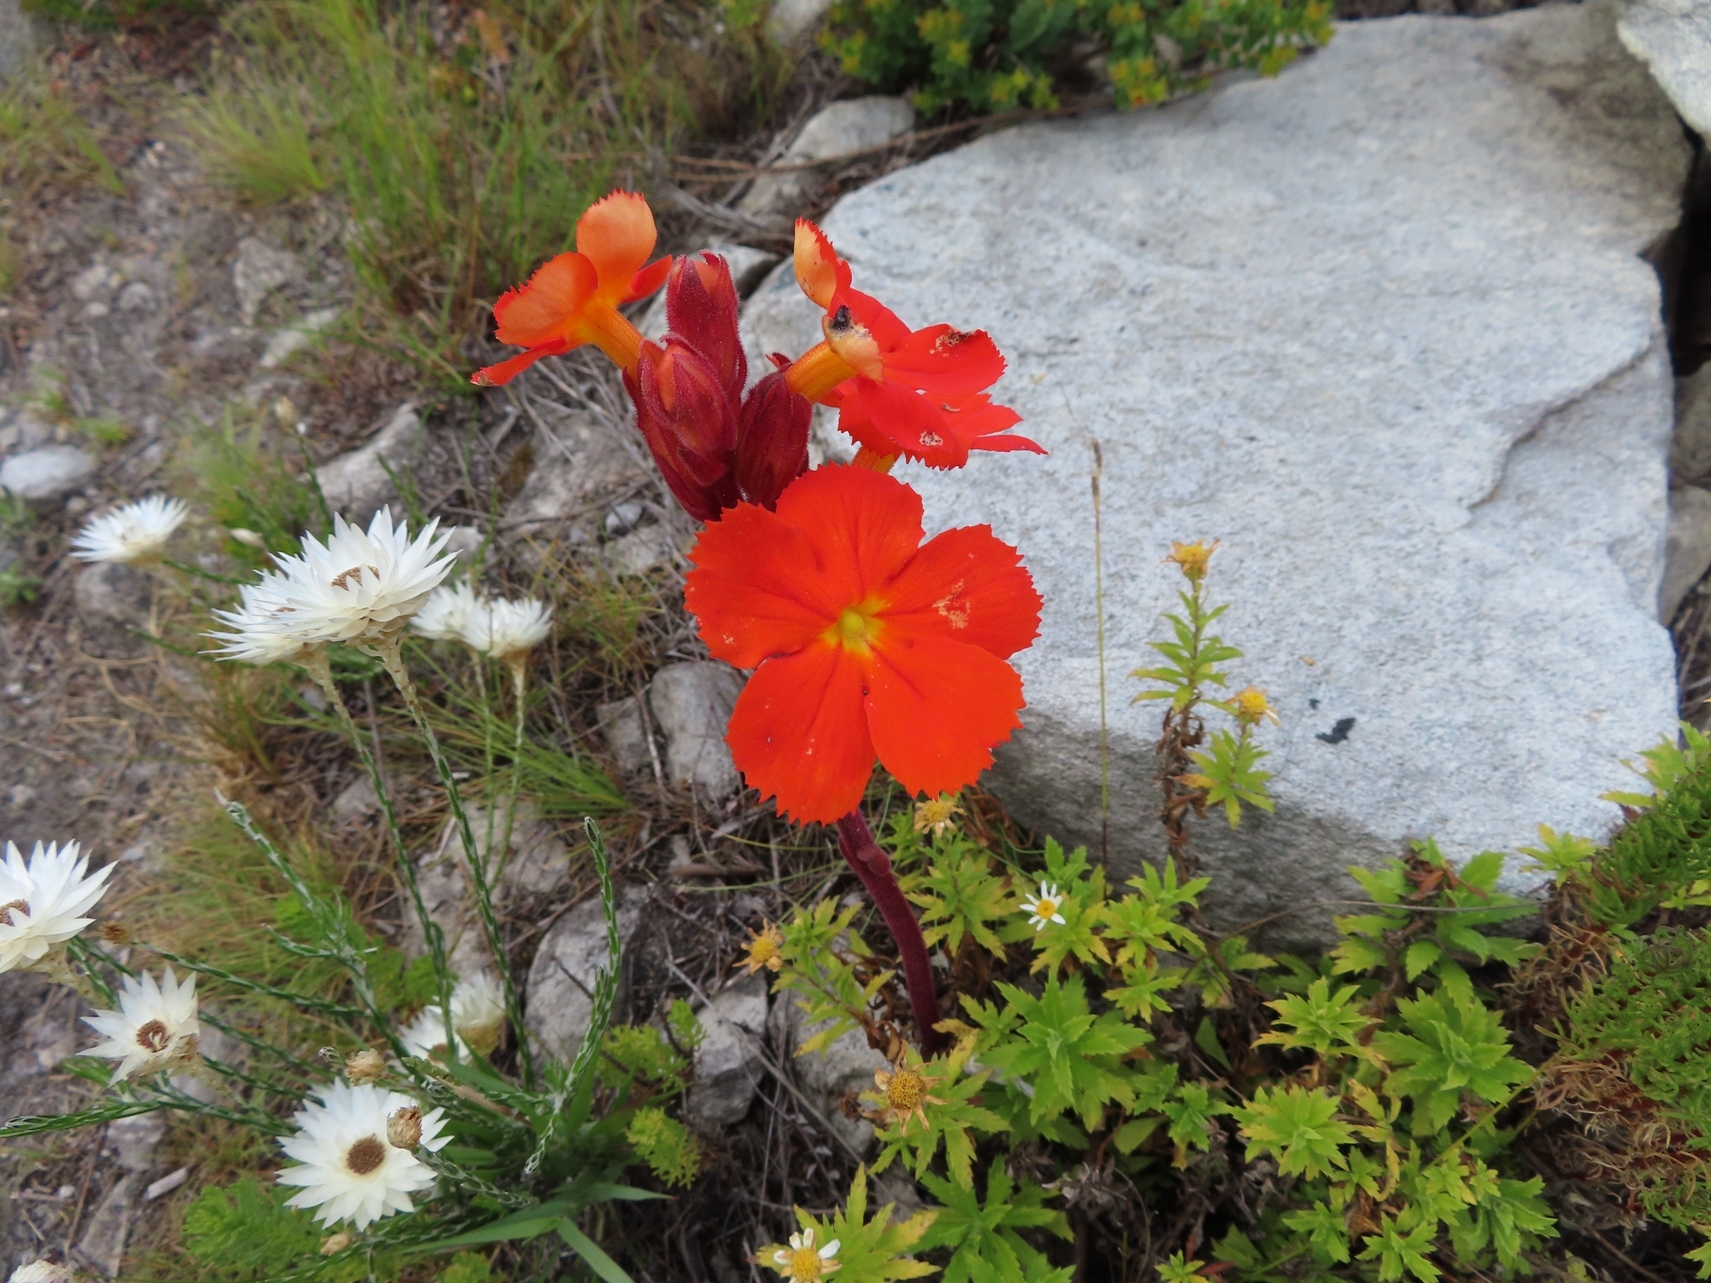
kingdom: Plantae
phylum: Tracheophyta
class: Magnoliopsida
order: Lamiales
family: Orobanchaceae
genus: Harveya
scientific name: Harveya stenosiphon
